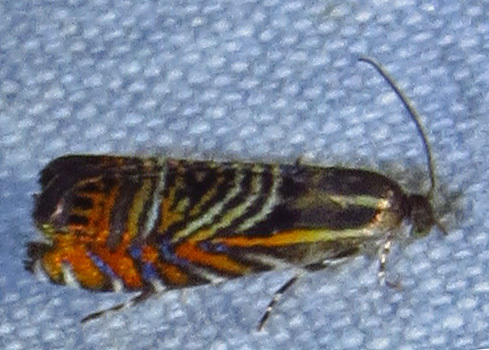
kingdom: Animalia
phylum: Arthropoda
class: Insecta
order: Lepidoptera
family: Tortricidae
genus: Thaumatographa
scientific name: Thaumatographa jonesi
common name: Psychedelic jones moth
